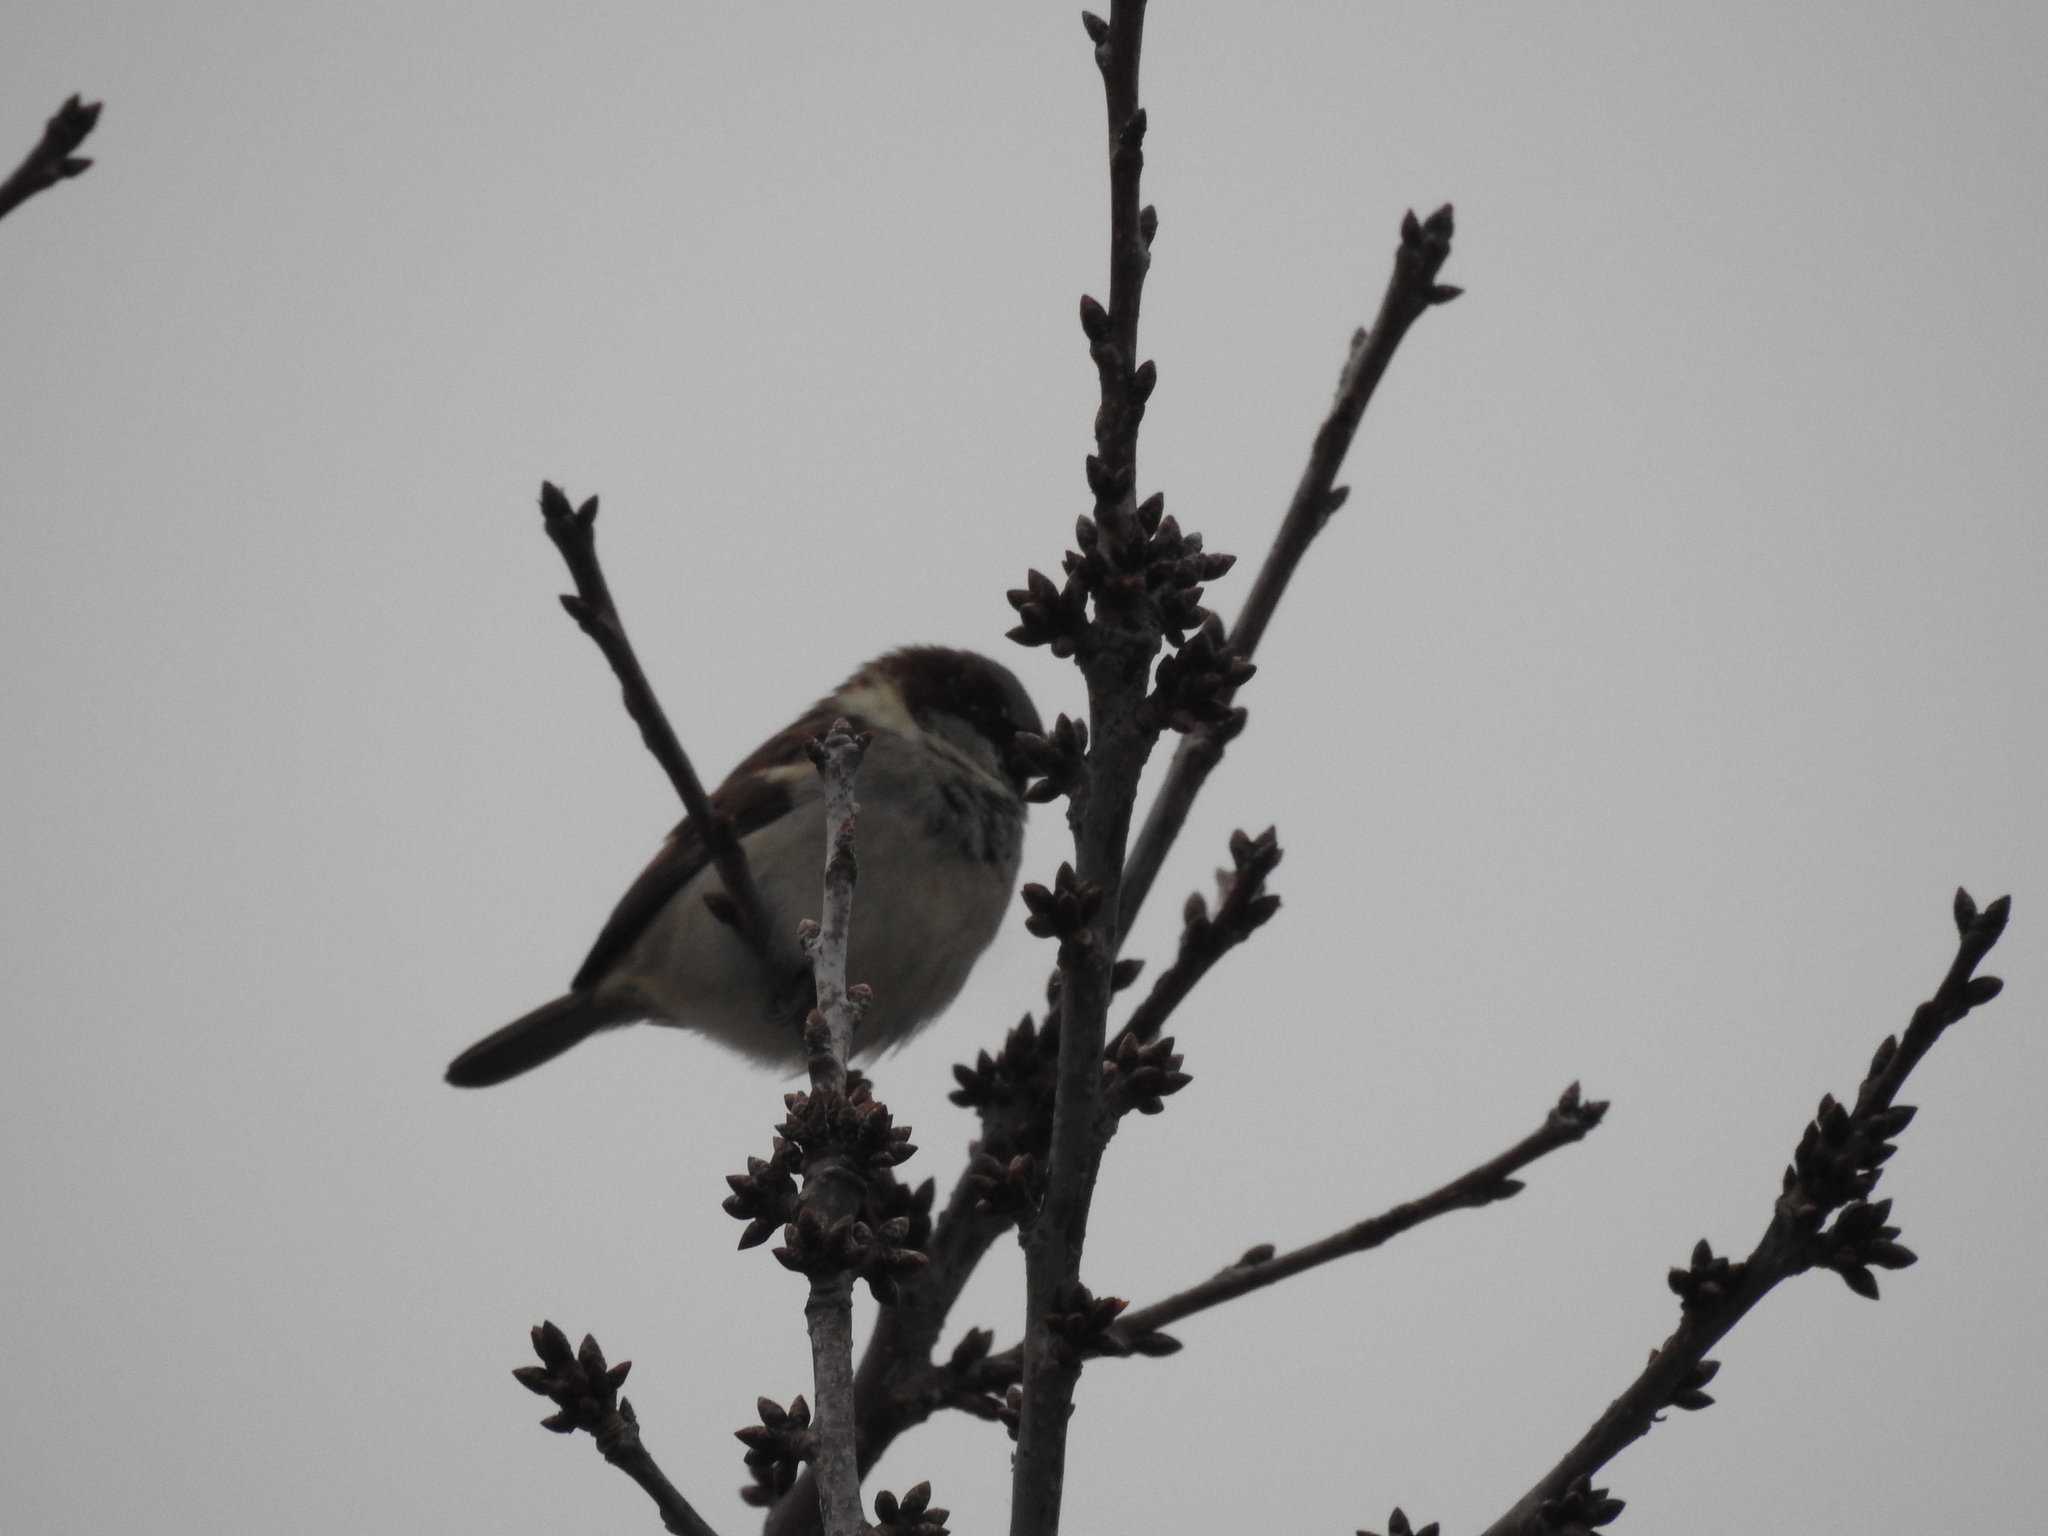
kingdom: Animalia
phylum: Chordata
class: Aves
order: Passeriformes
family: Passeridae
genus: Passer
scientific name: Passer domesticus
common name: House sparrow
